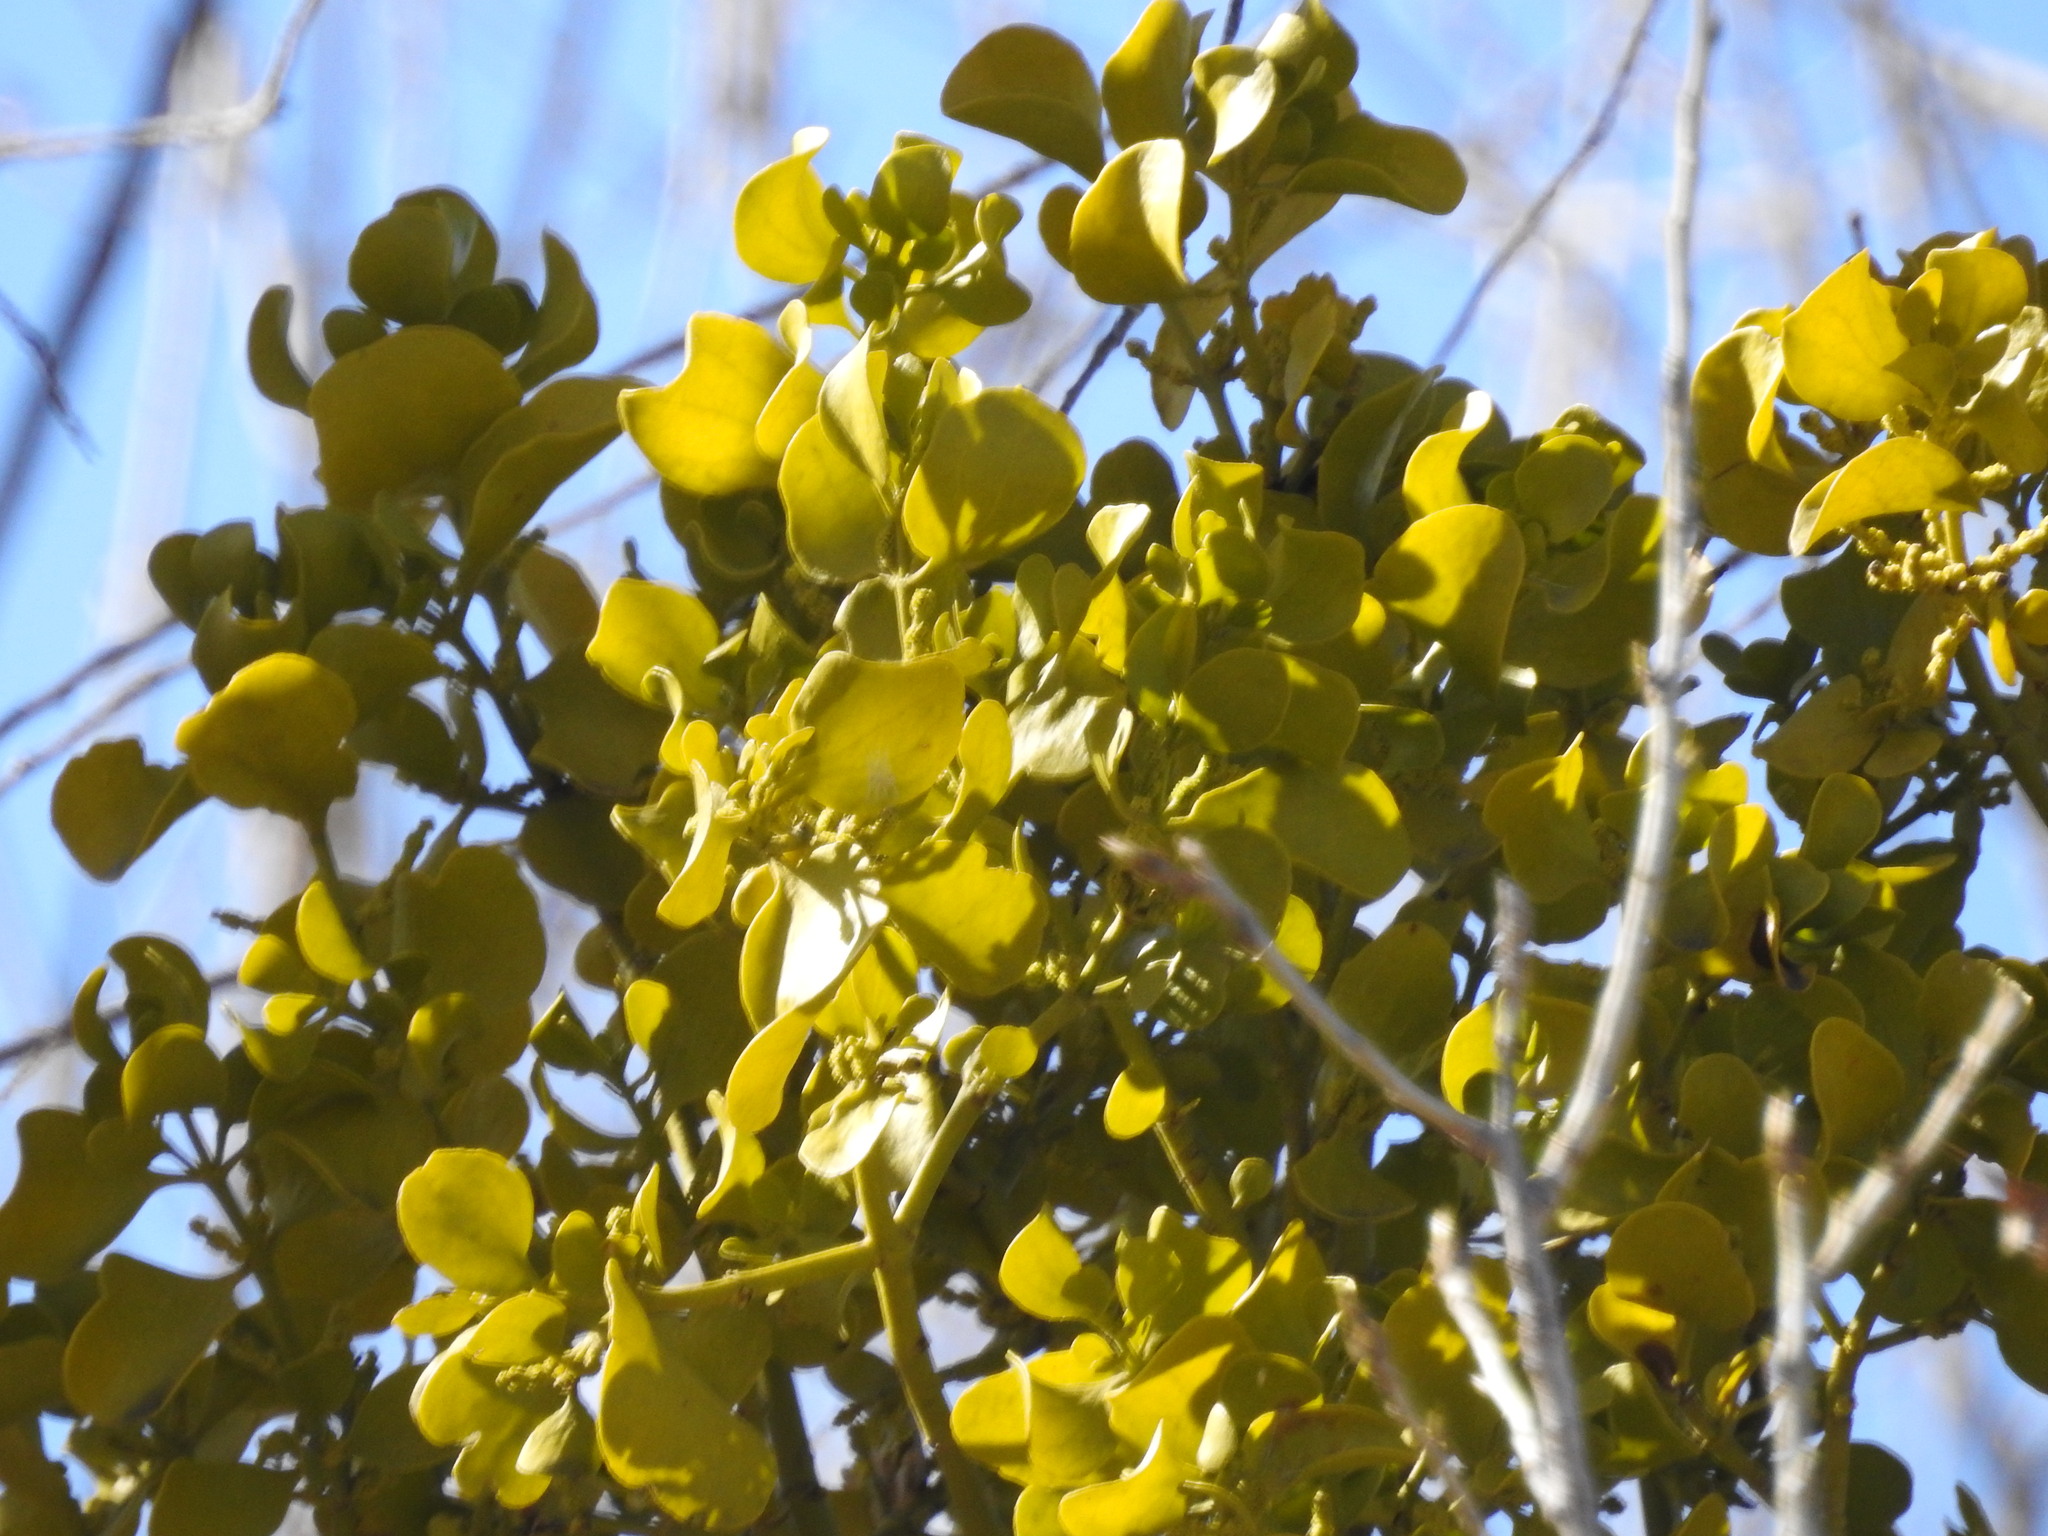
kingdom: Plantae
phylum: Tracheophyta
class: Magnoliopsida
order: Santalales
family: Viscaceae
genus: Phoradendron
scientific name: Phoradendron
